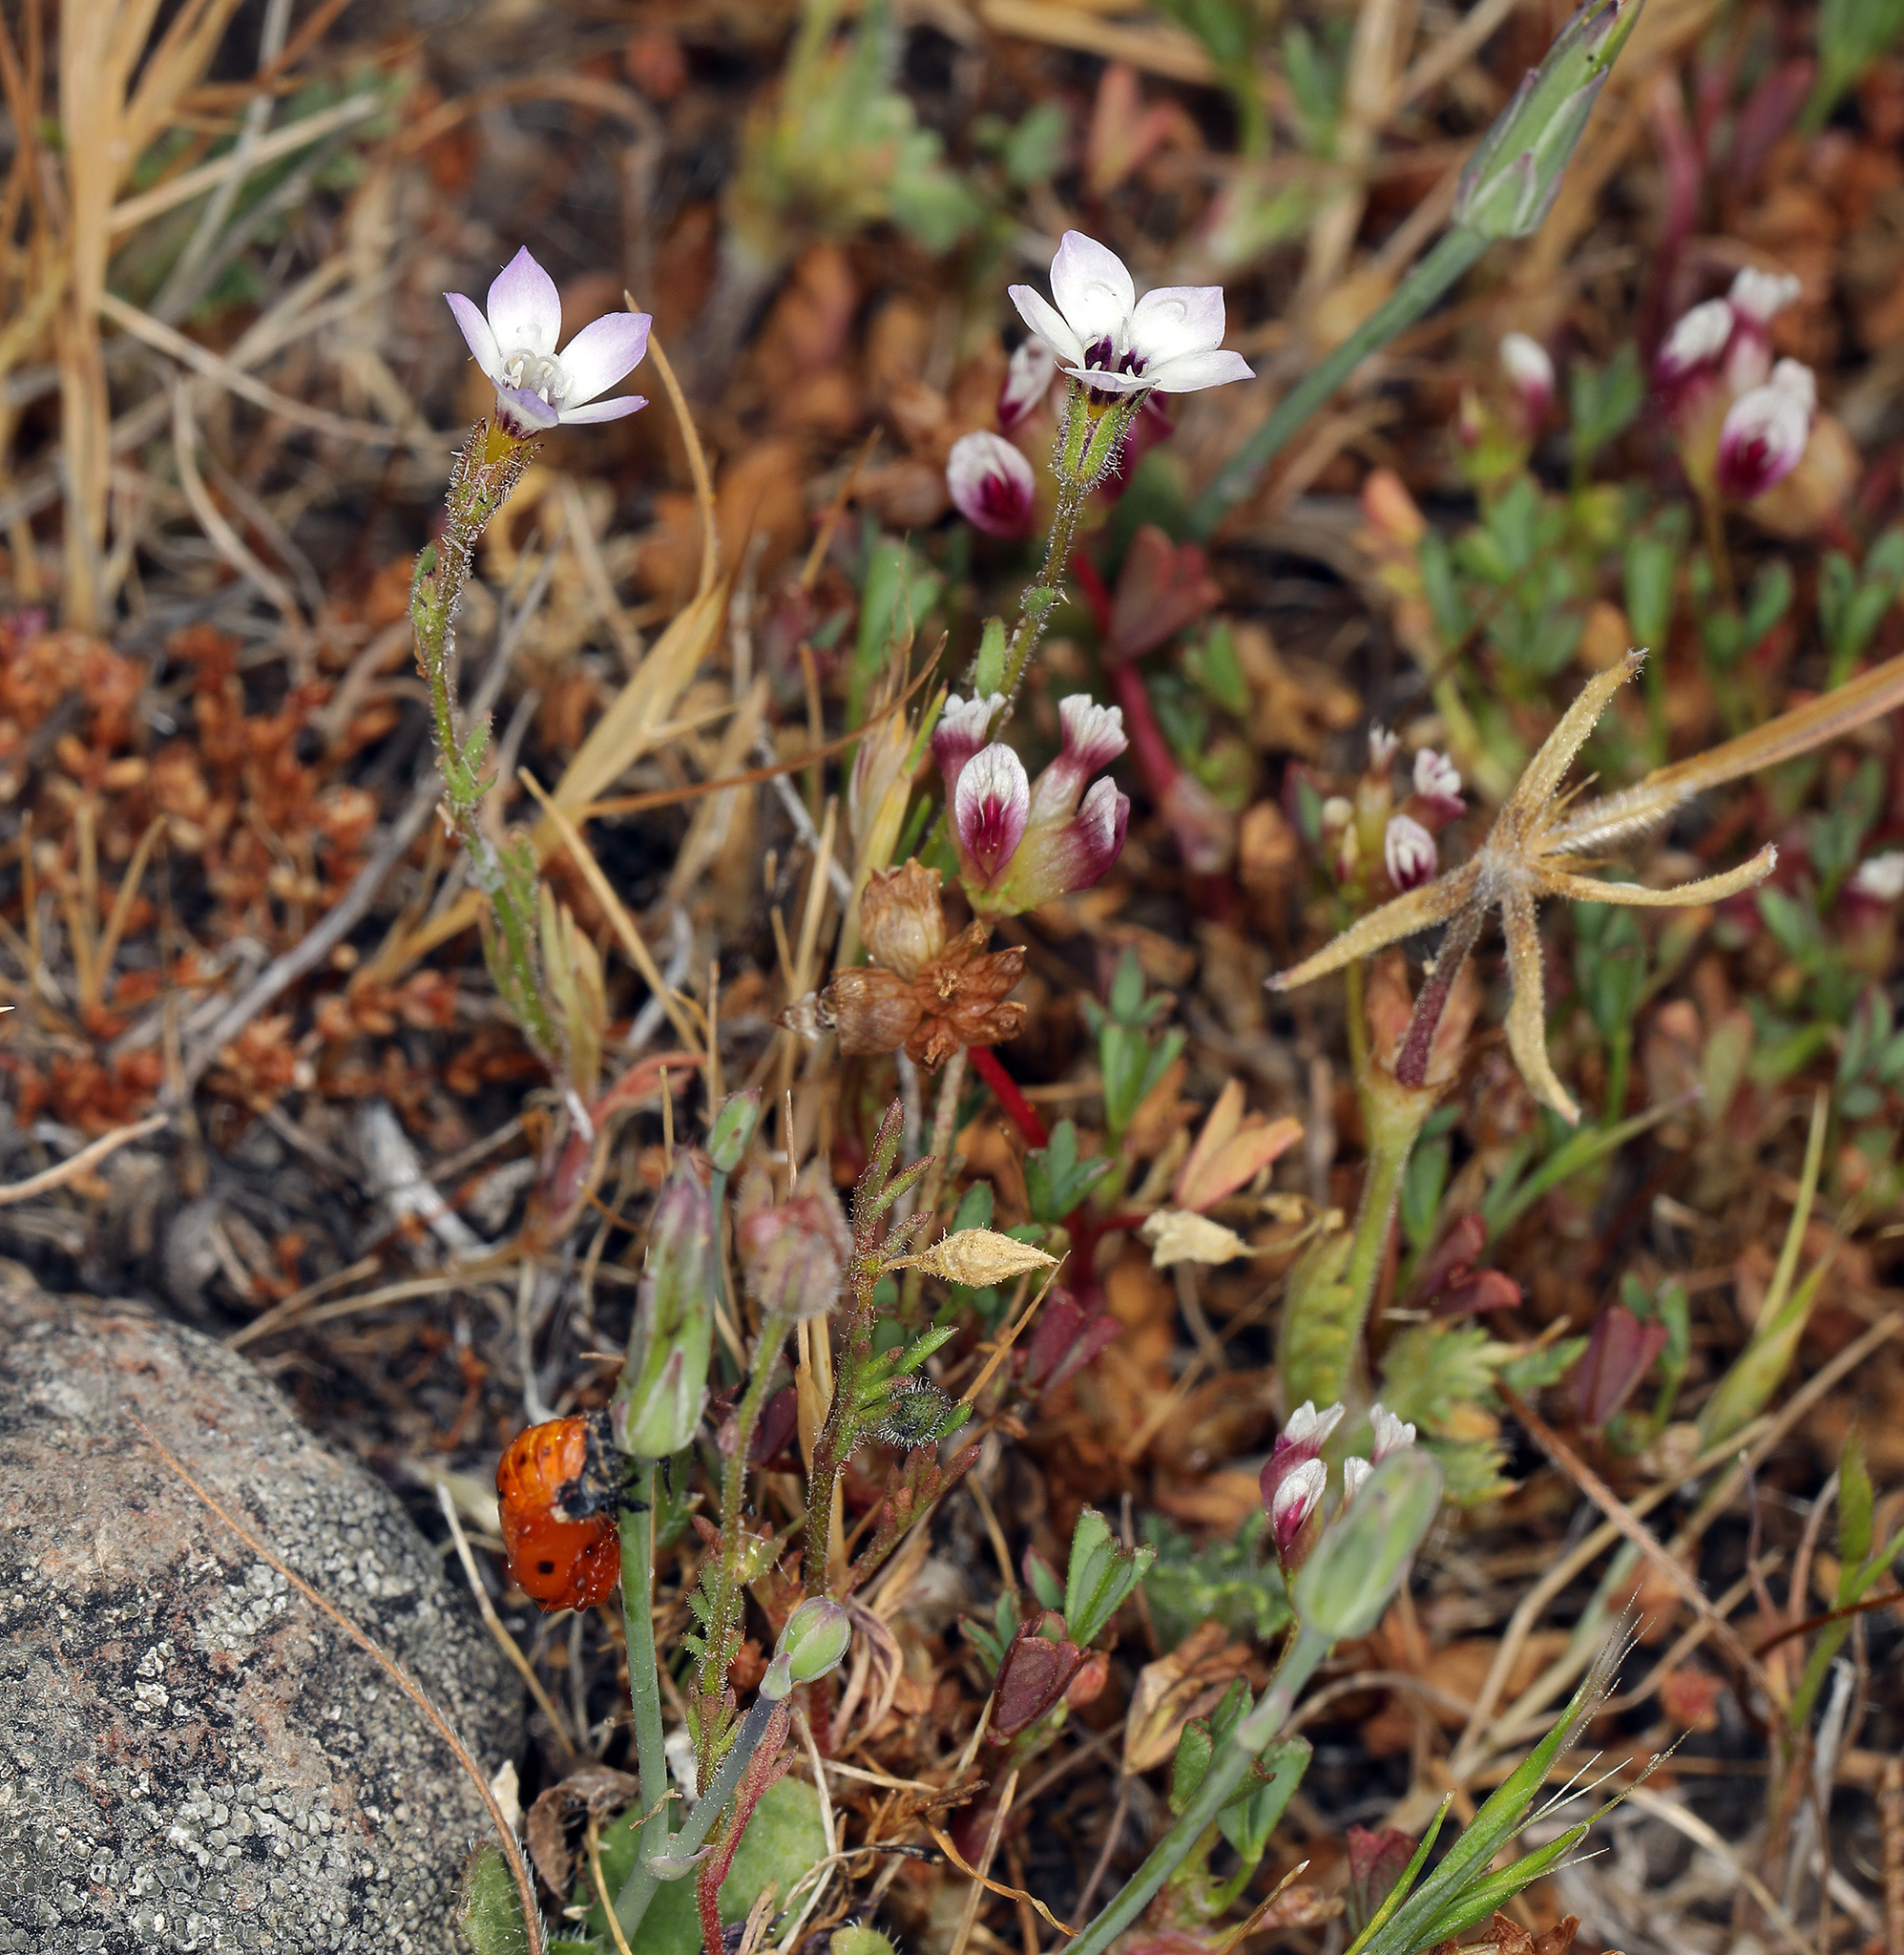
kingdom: Plantae
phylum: Tracheophyta
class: Magnoliopsida
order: Ericales
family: Polemoniaceae
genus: Gilia
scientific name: Gilia tricolor
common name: Bird's-eyes
